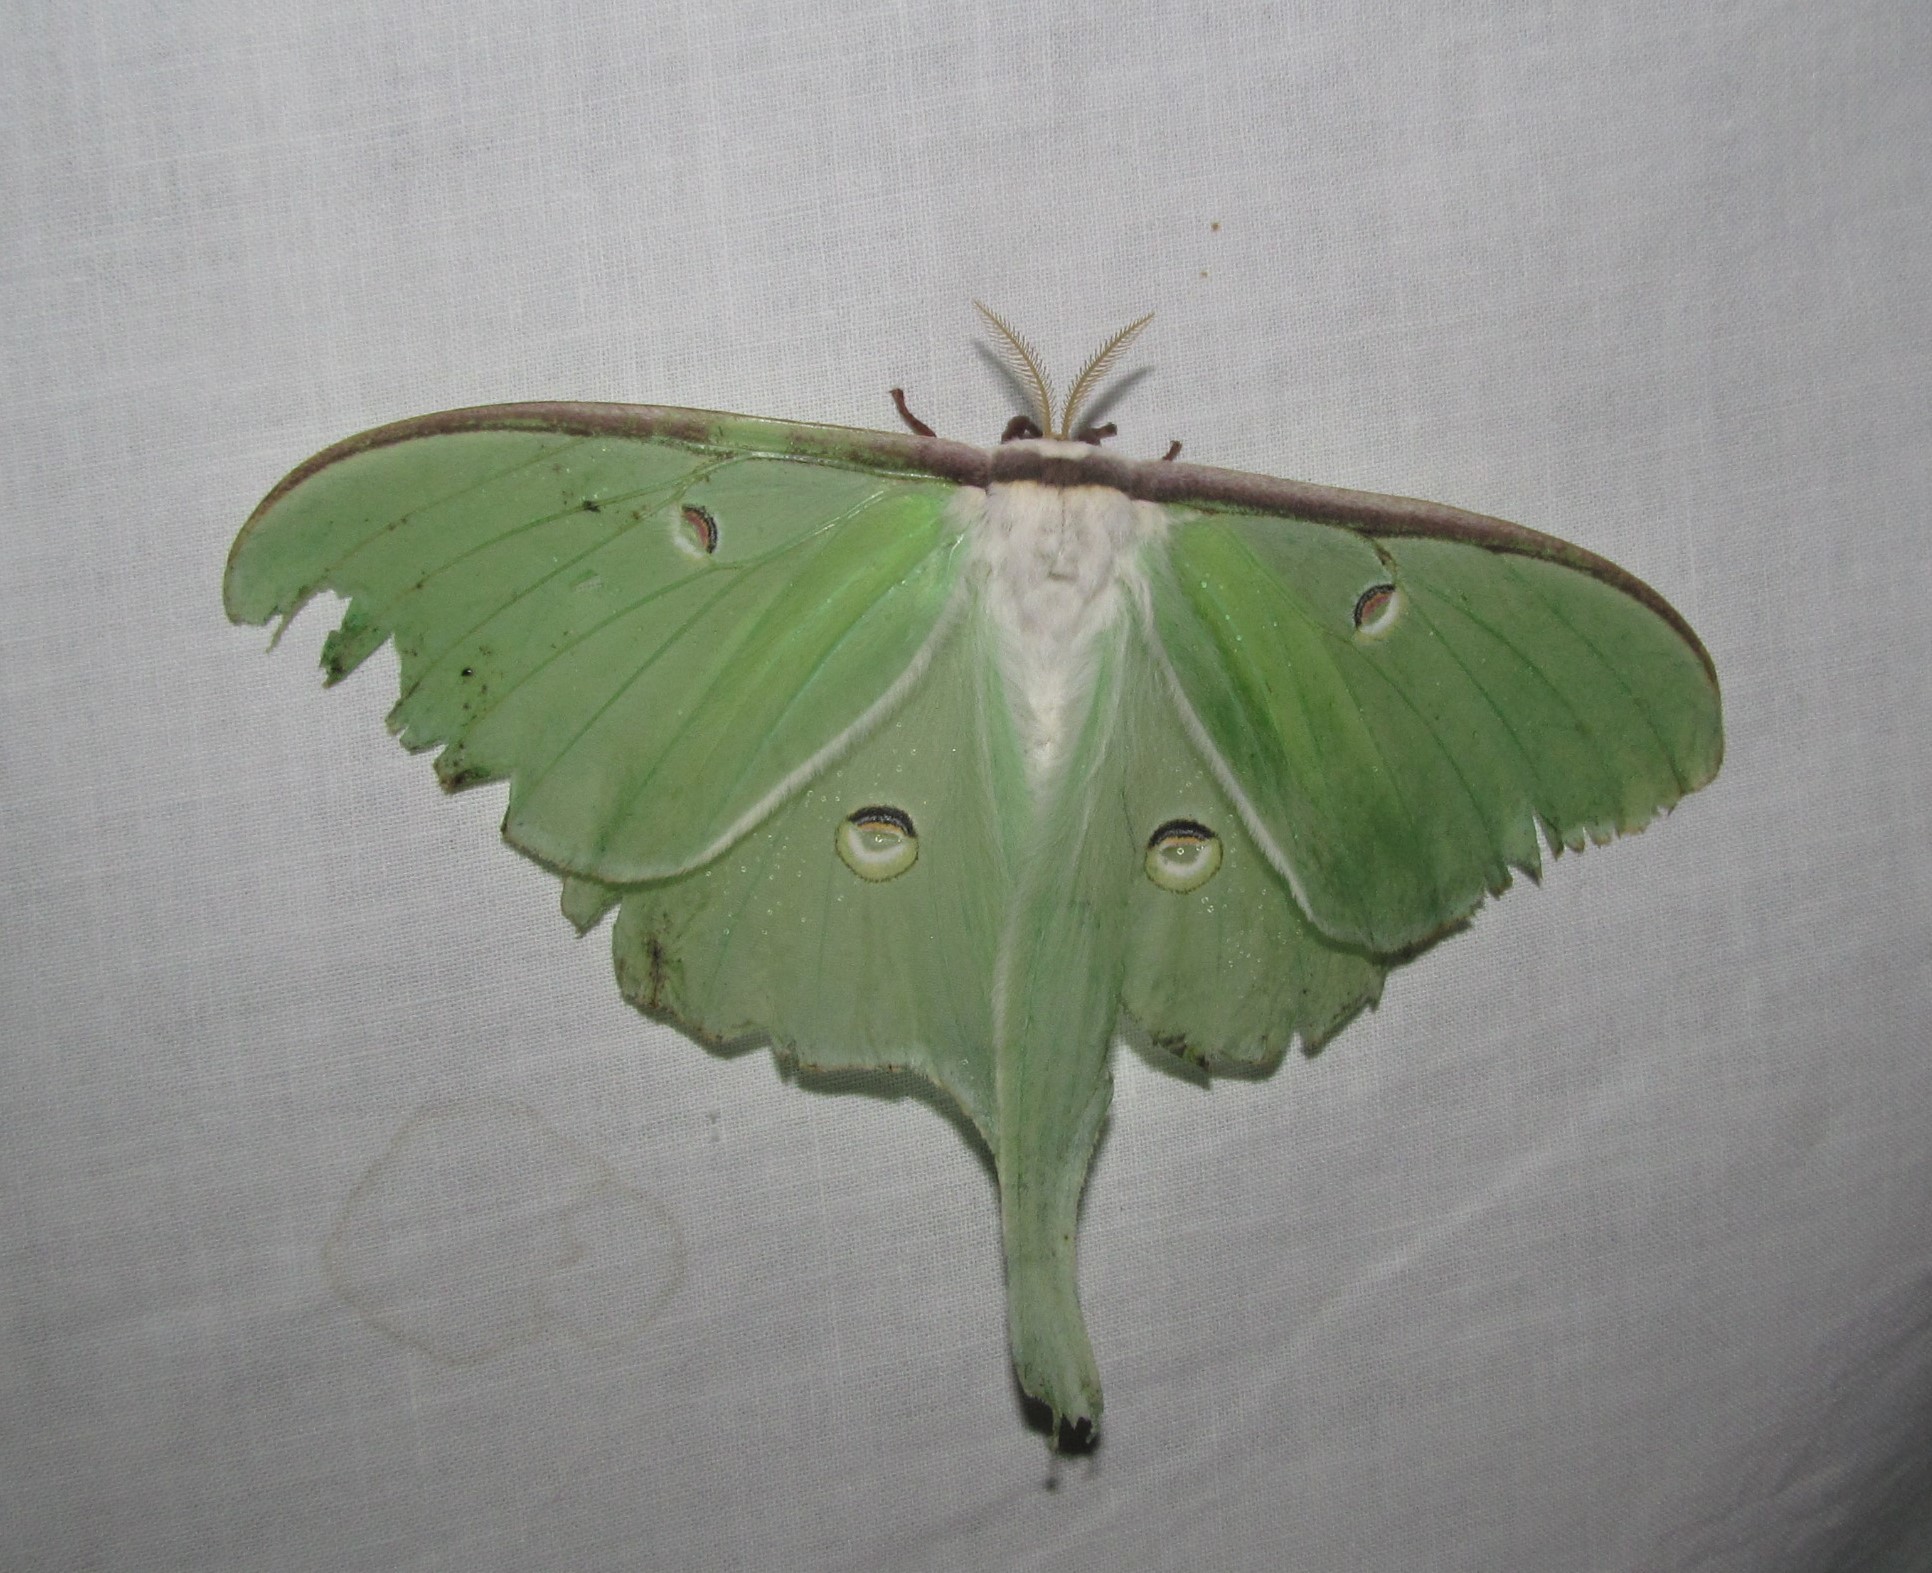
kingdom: Animalia
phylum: Arthropoda
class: Insecta
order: Lepidoptera
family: Saturniidae
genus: Actias
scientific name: Actias luna
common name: Luna moth
